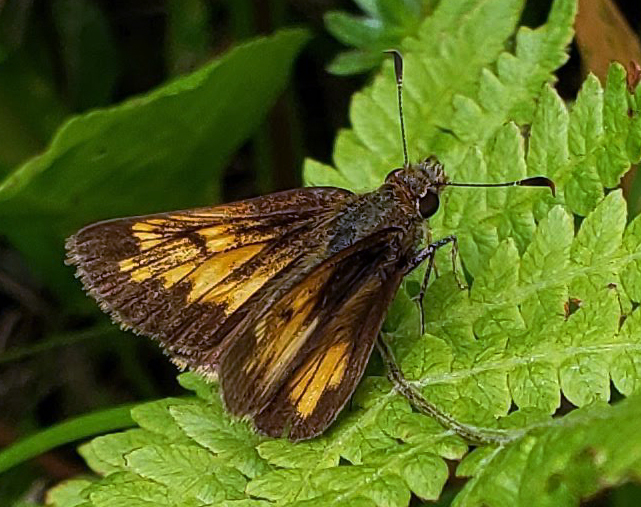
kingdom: Animalia
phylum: Arthropoda
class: Insecta
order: Lepidoptera
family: Hesperiidae
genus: Lon
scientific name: Lon hobomok
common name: Hobomok skipper
